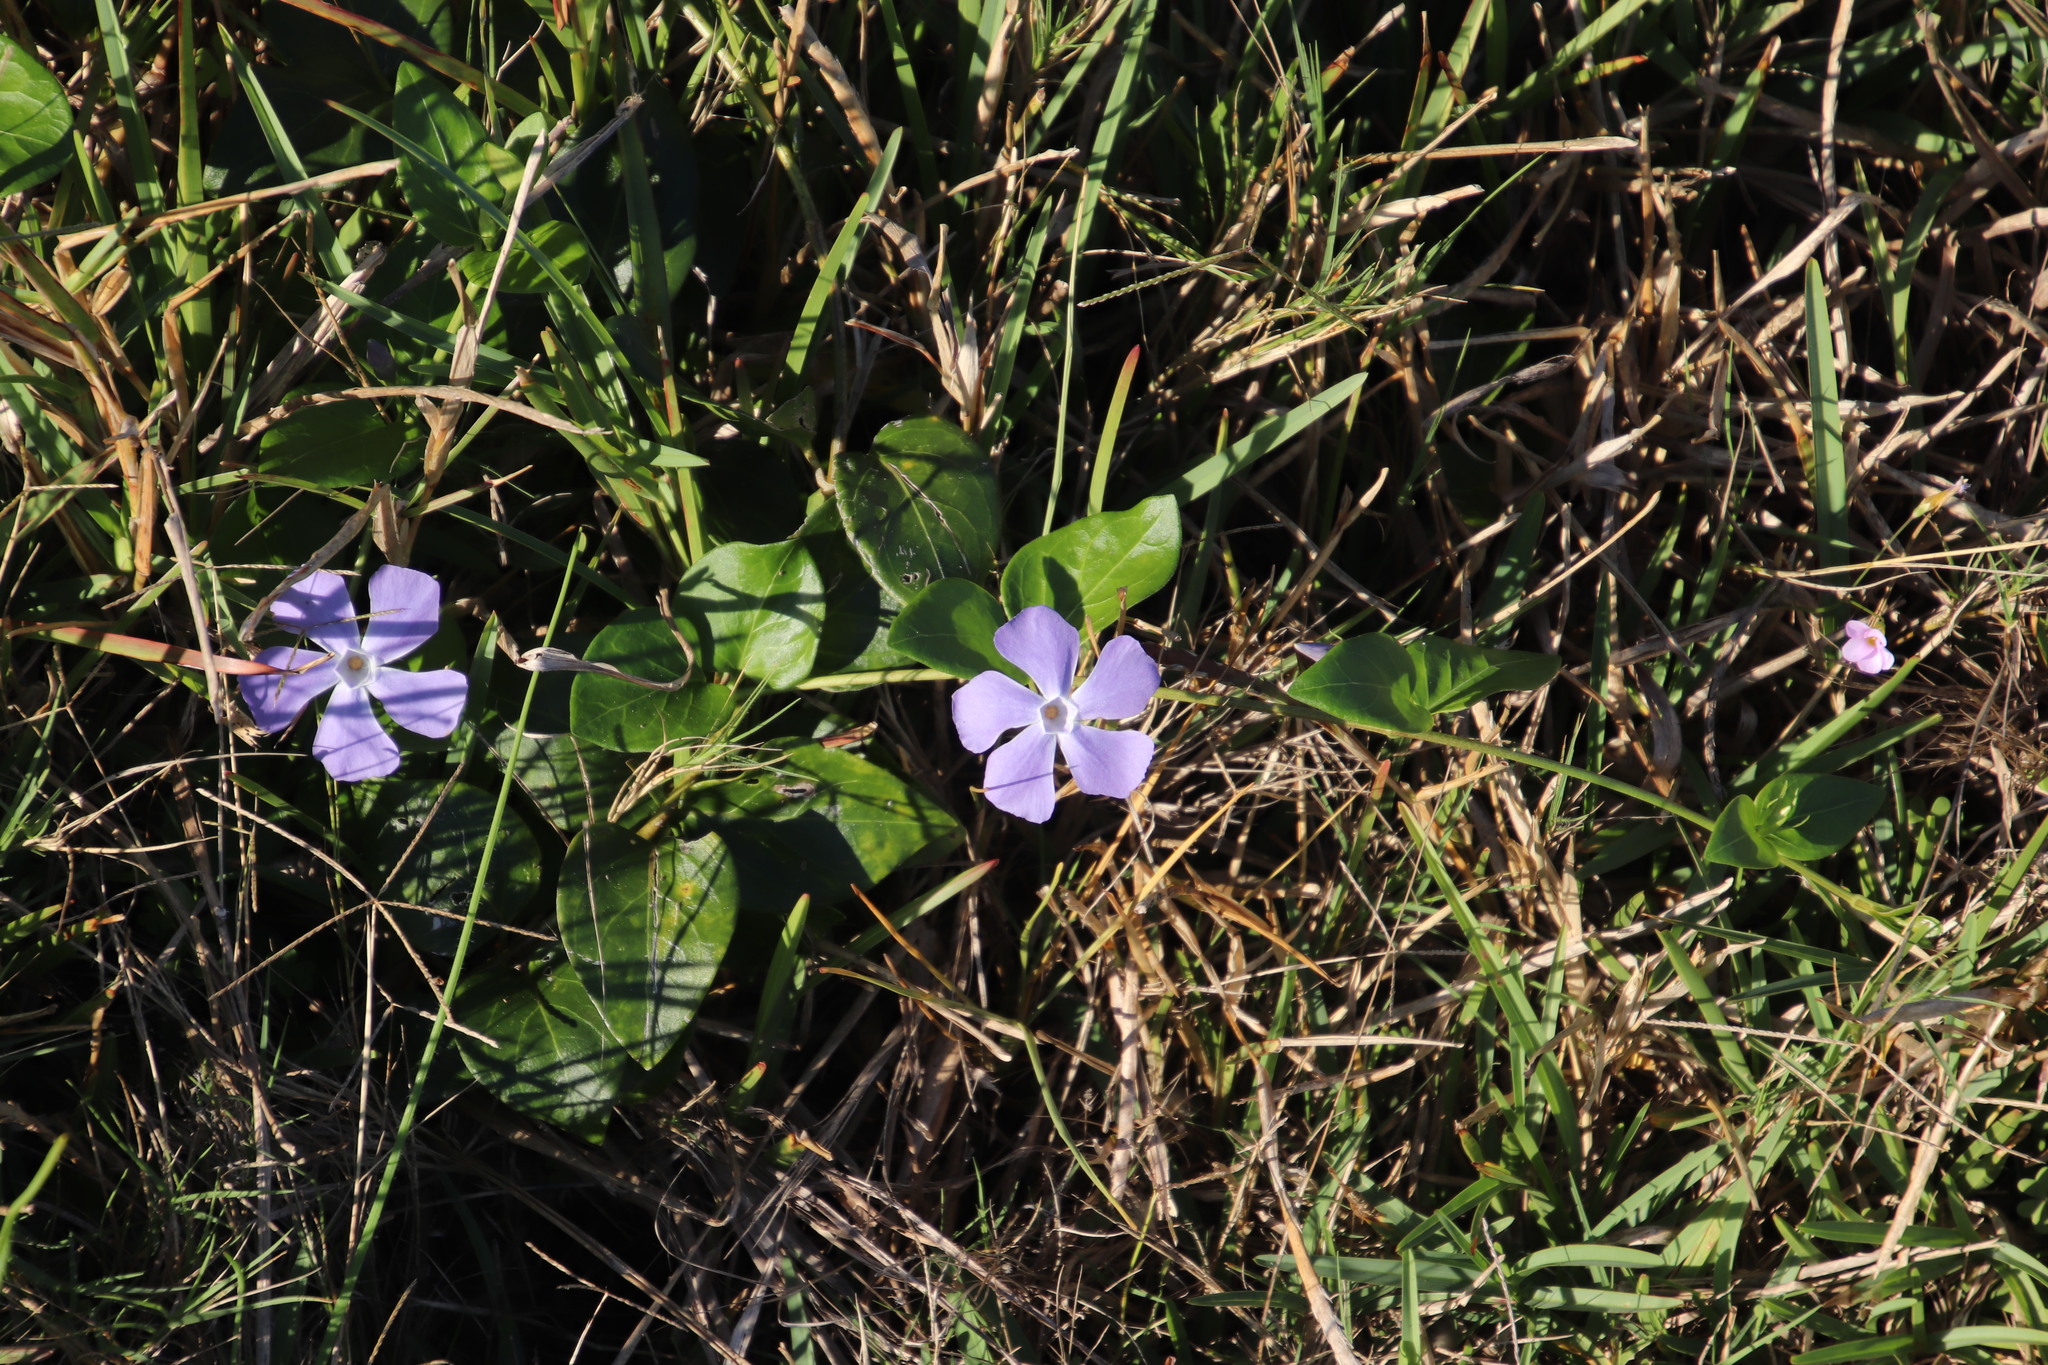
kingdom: Plantae
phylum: Tracheophyta
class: Magnoliopsida
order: Gentianales
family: Apocynaceae
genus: Vinca
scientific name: Vinca major
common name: Greater periwinkle
